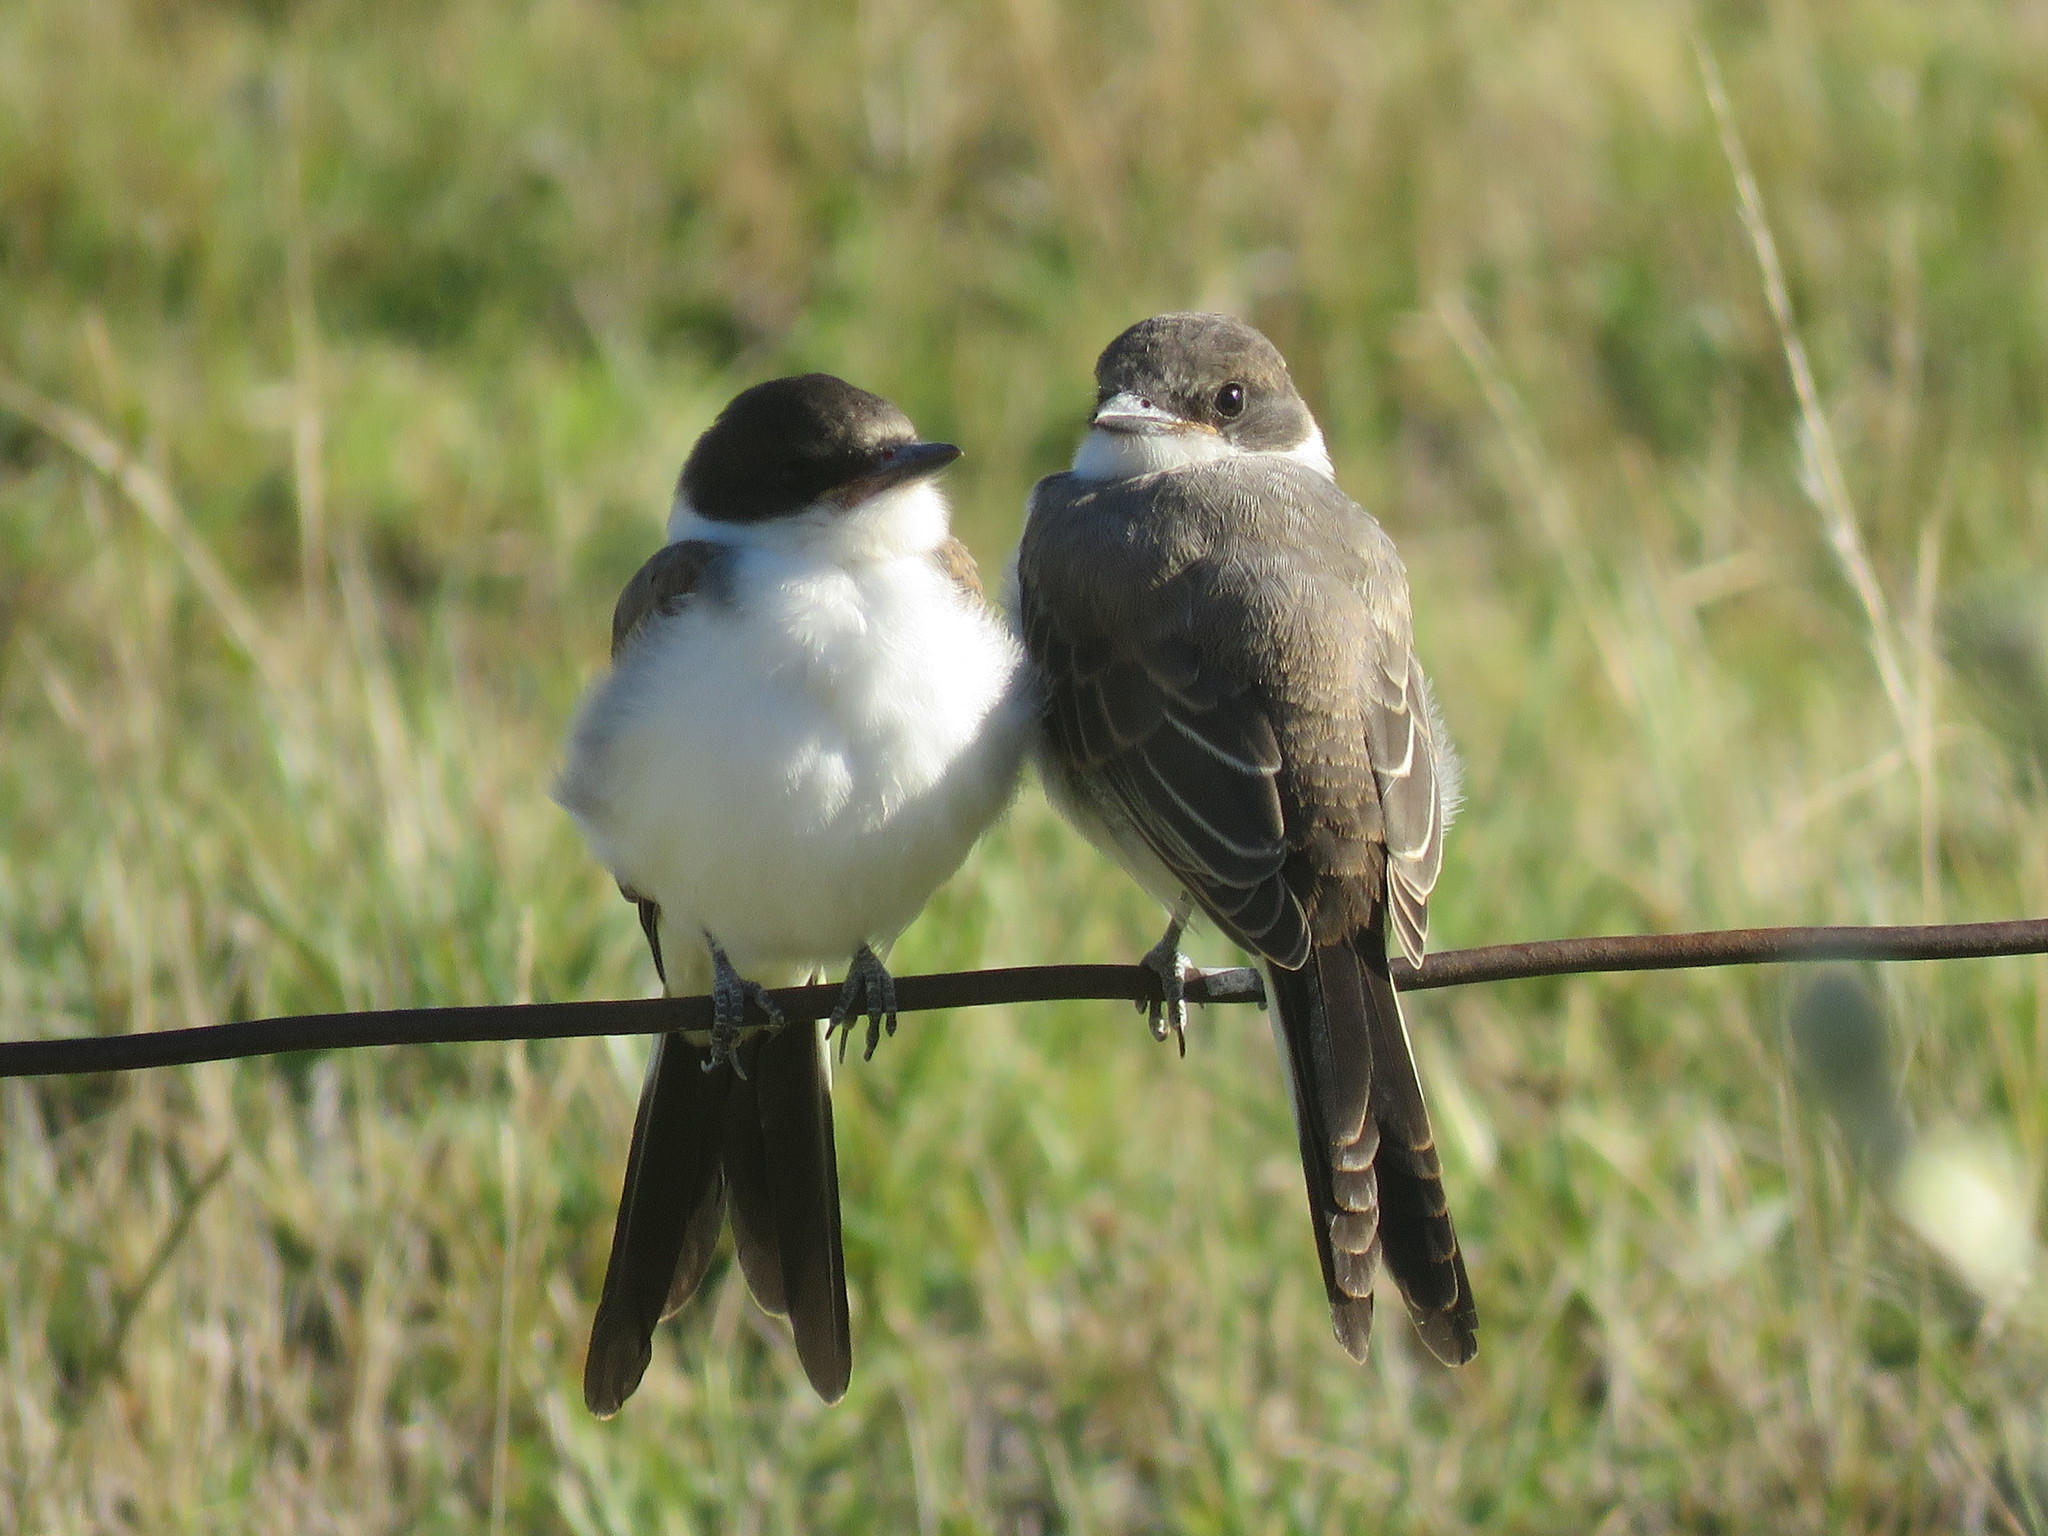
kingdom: Animalia
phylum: Chordata
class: Aves
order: Passeriformes
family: Tyrannidae
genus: Tyrannus
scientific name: Tyrannus savana
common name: Fork-tailed flycatcher
